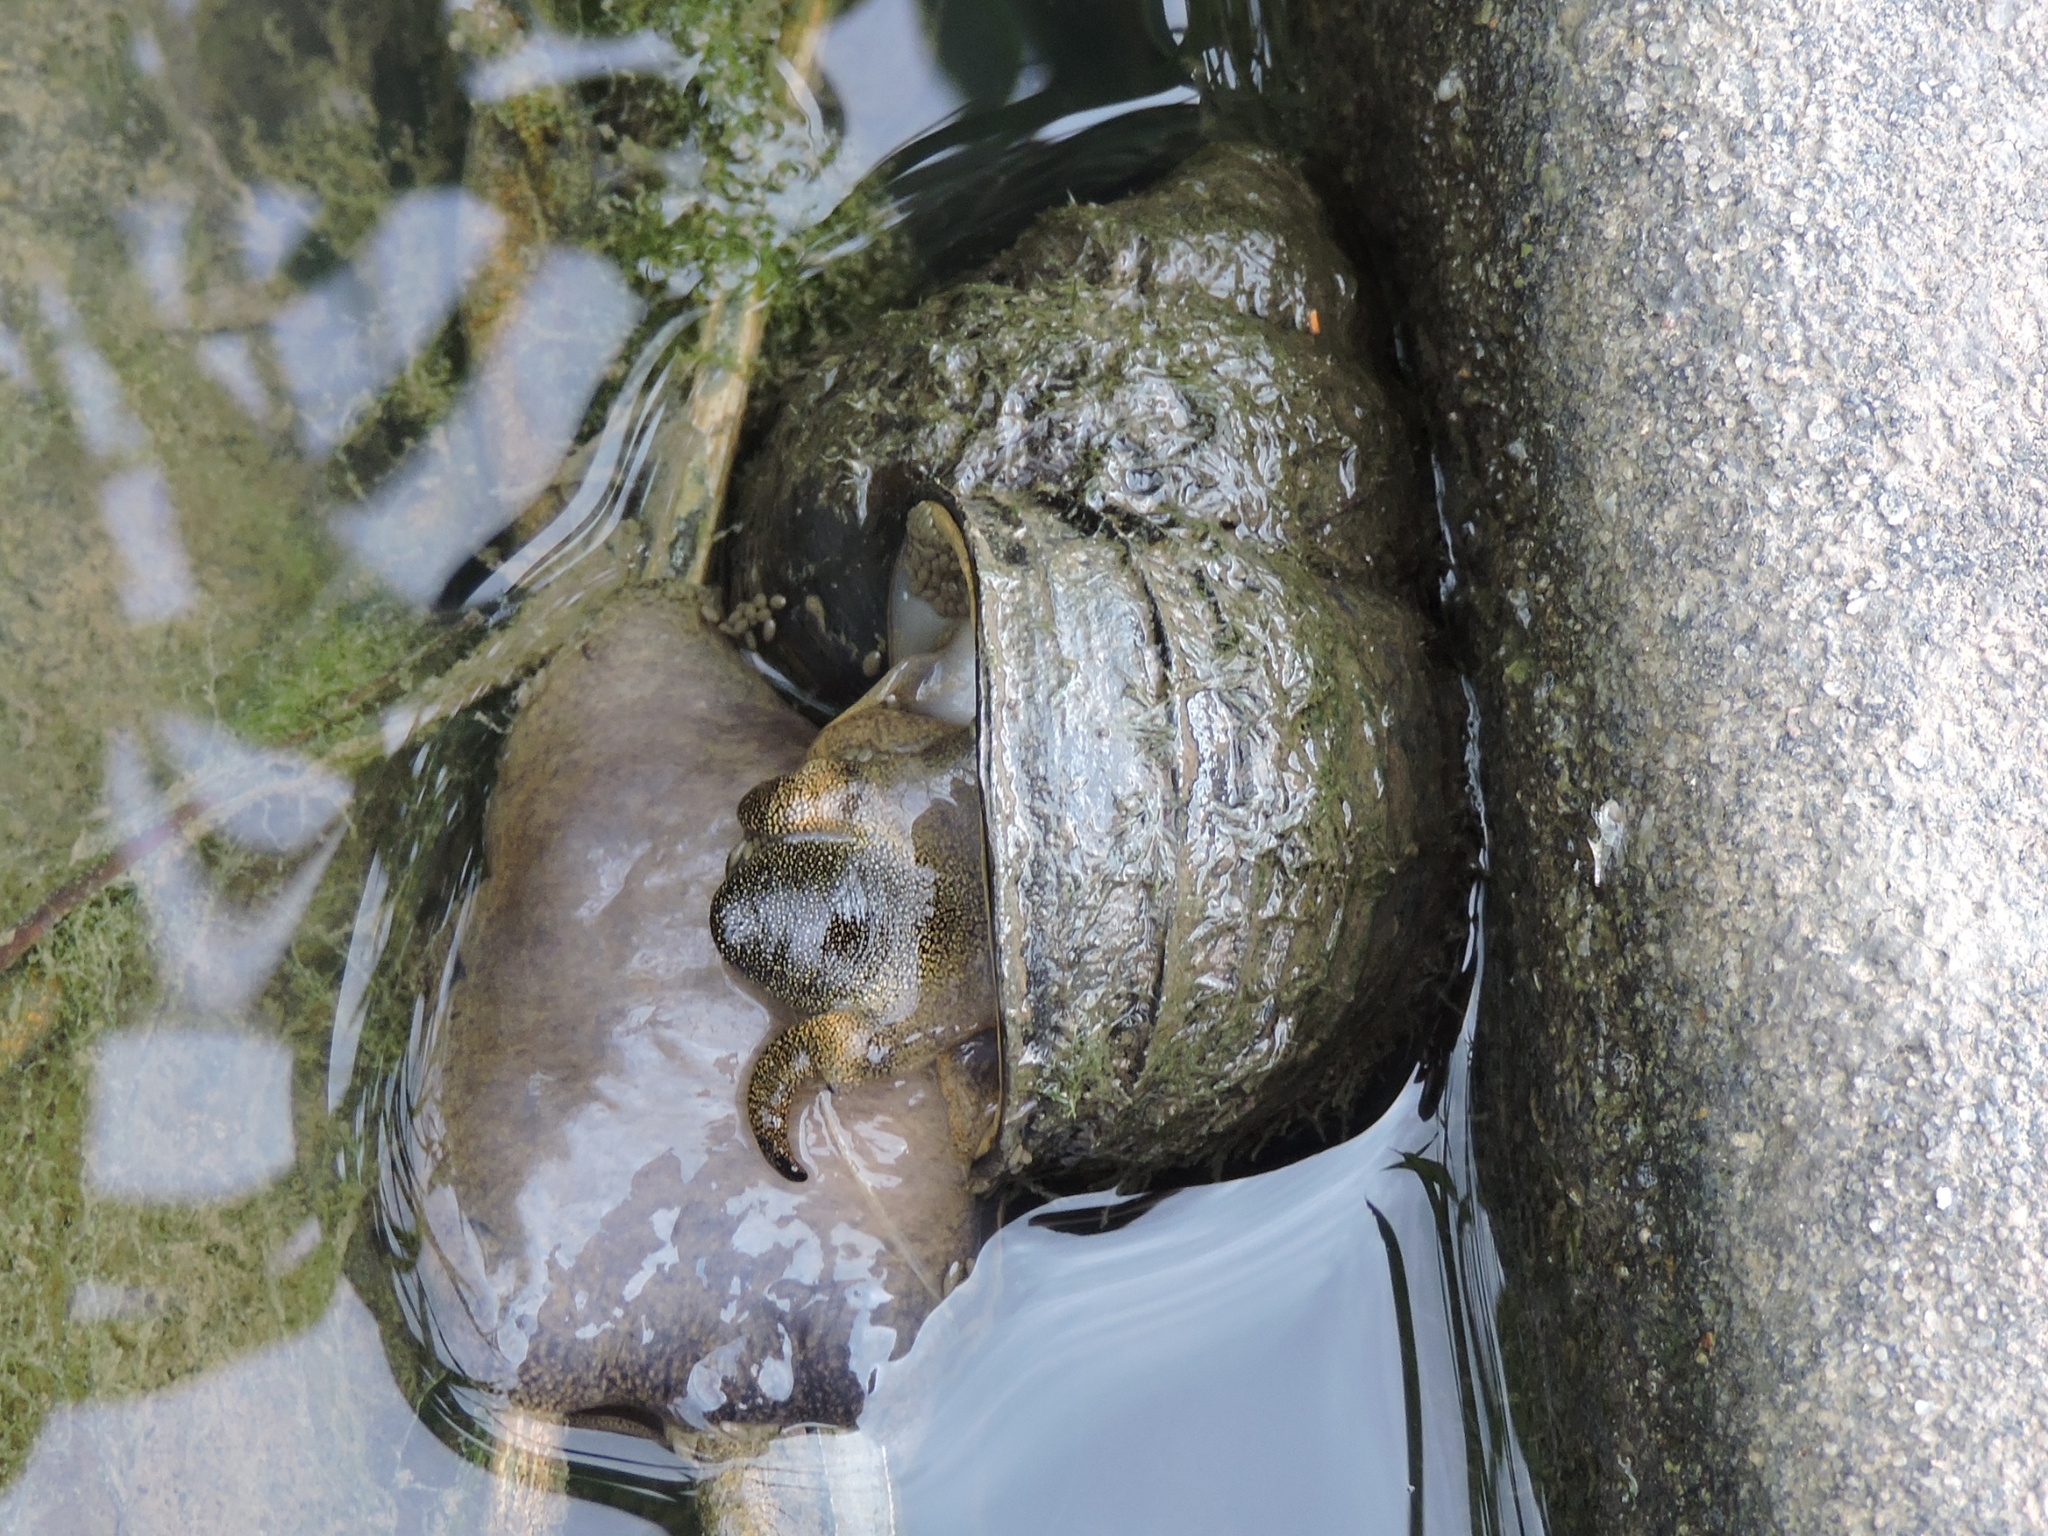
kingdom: Animalia
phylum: Mollusca
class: Gastropoda
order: Architaenioglossa
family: Viviparidae
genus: Cipangopaludina
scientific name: Cipangopaludina chinensis
